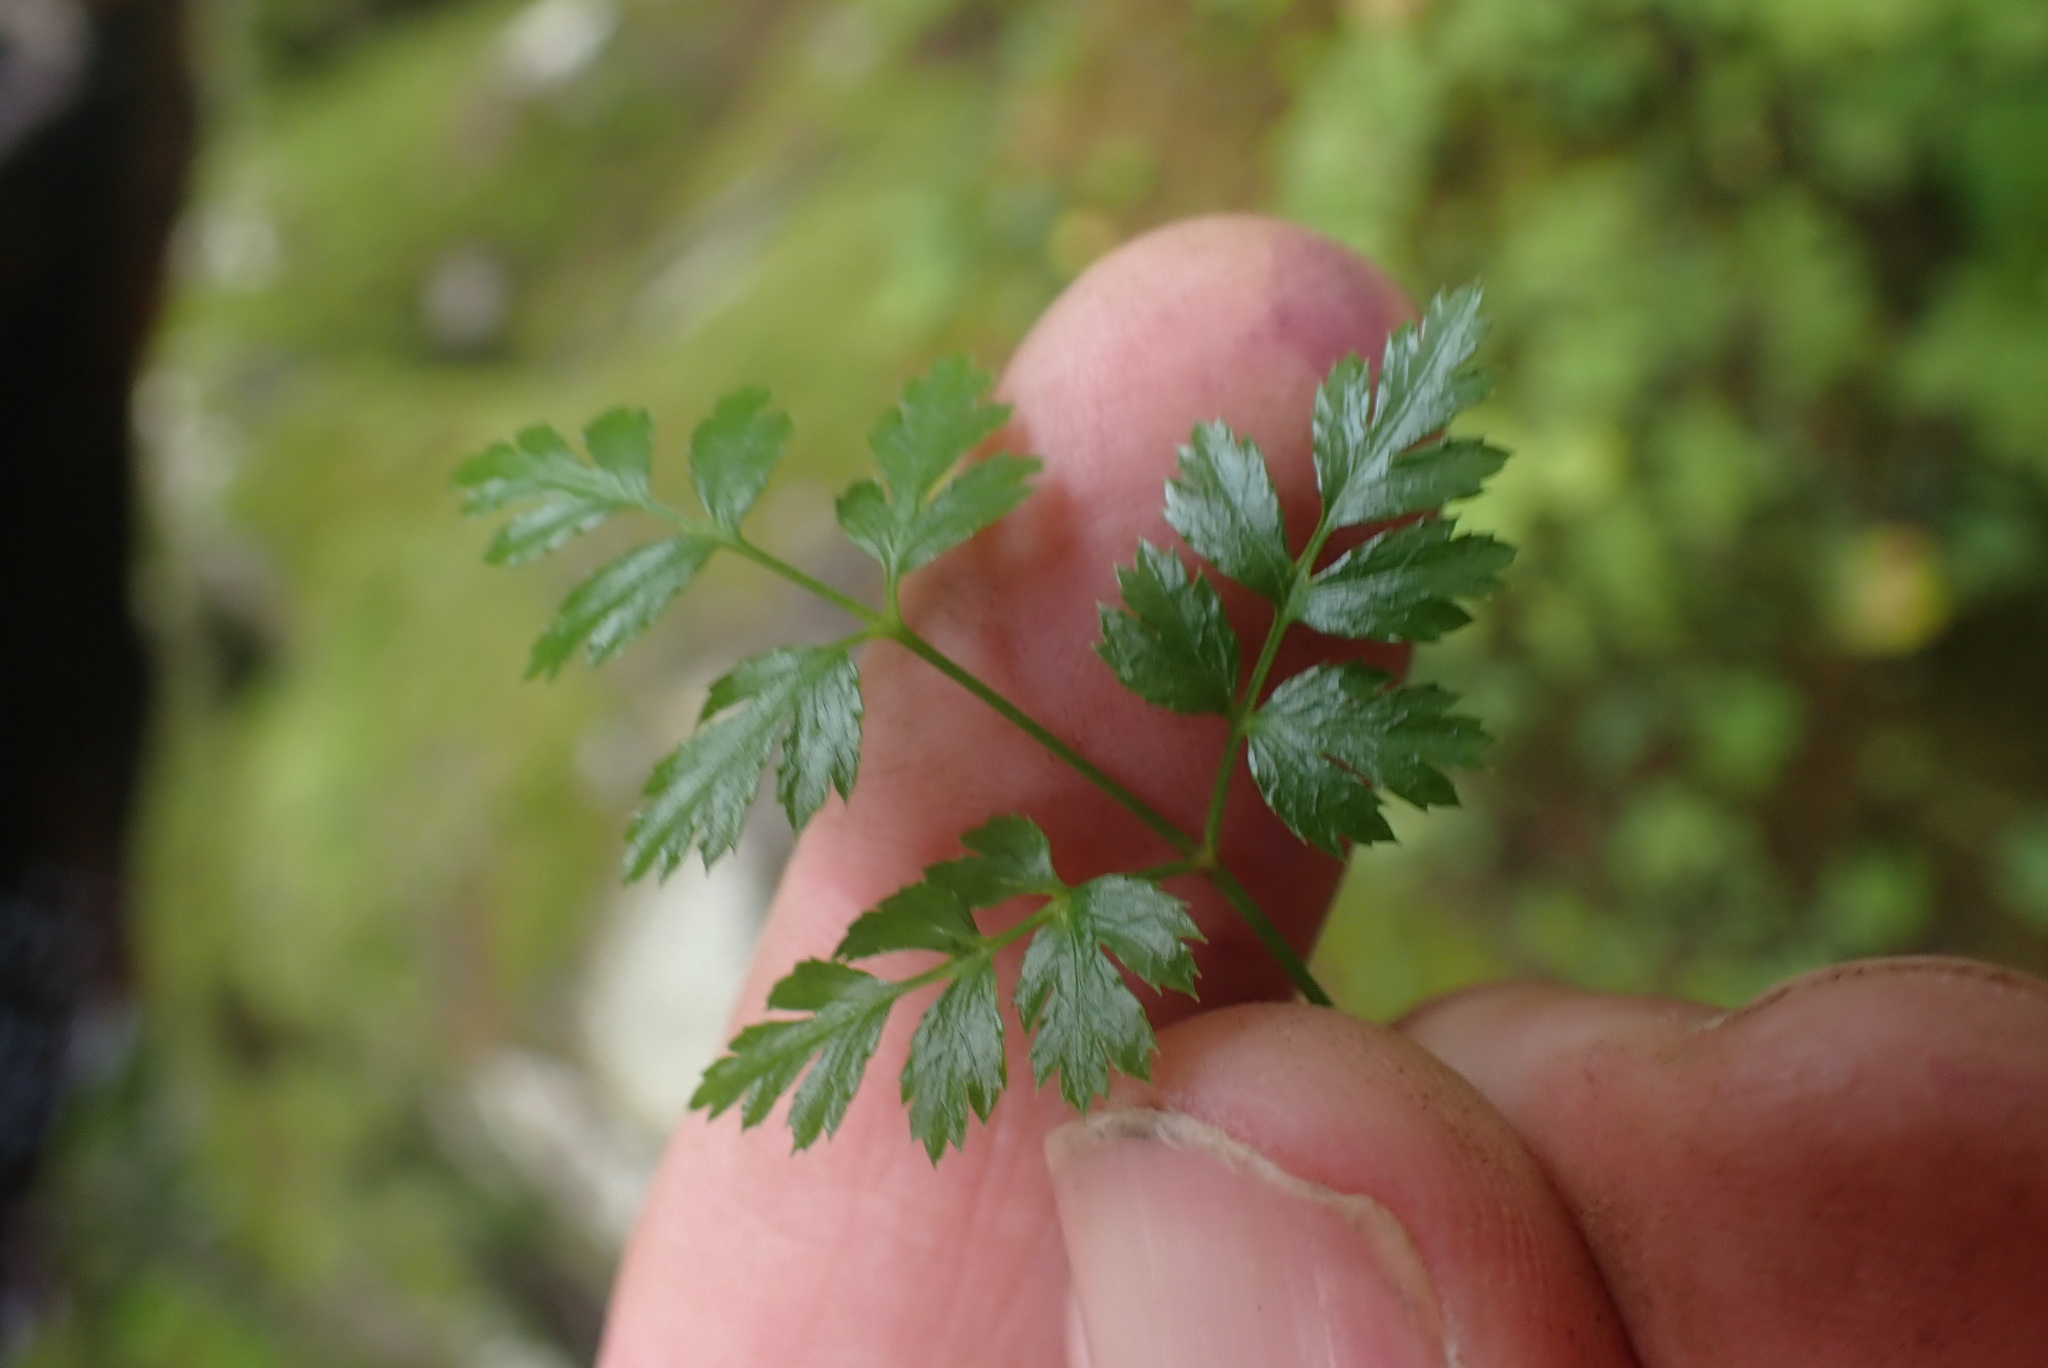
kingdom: Plantae
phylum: Tracheophyta
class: Magnoliopsida
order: Ranunculales
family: Ranunculaceae
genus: Coptis
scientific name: Coptis aspleniifolia
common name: Fern-leaved goldthread
